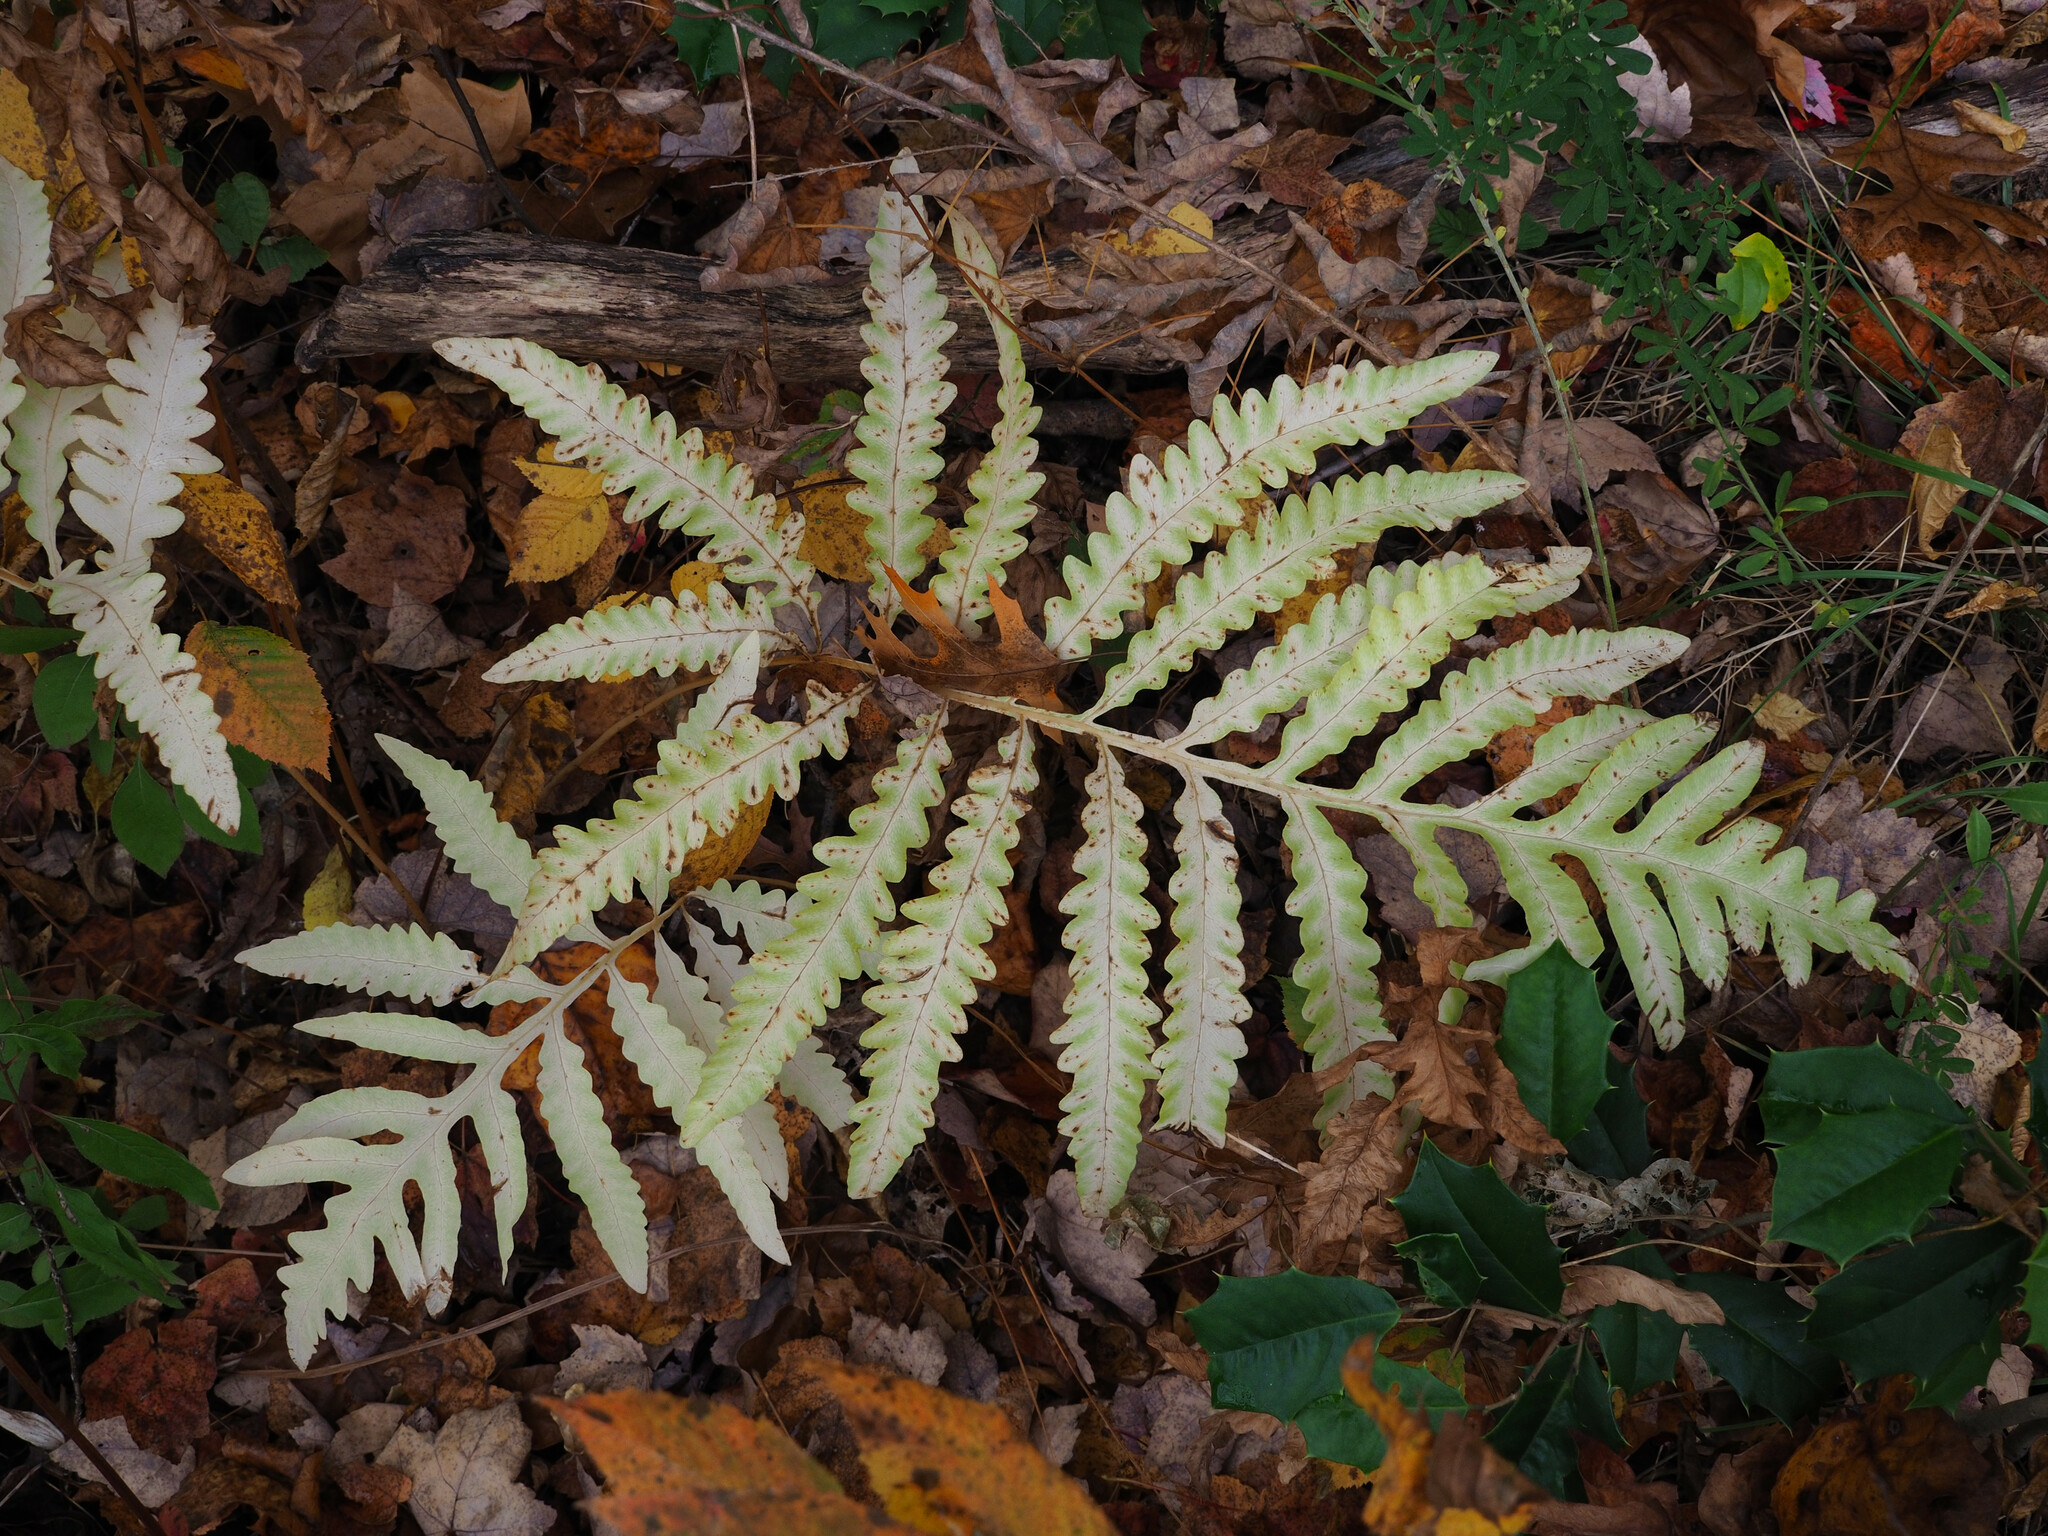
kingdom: Plantae
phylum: Tracheophyta
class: Polypodiopsida
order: Polypodiales
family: Onocleaceae
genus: Onoclea
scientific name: Onoclea sensibilis
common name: Sensitive fern
